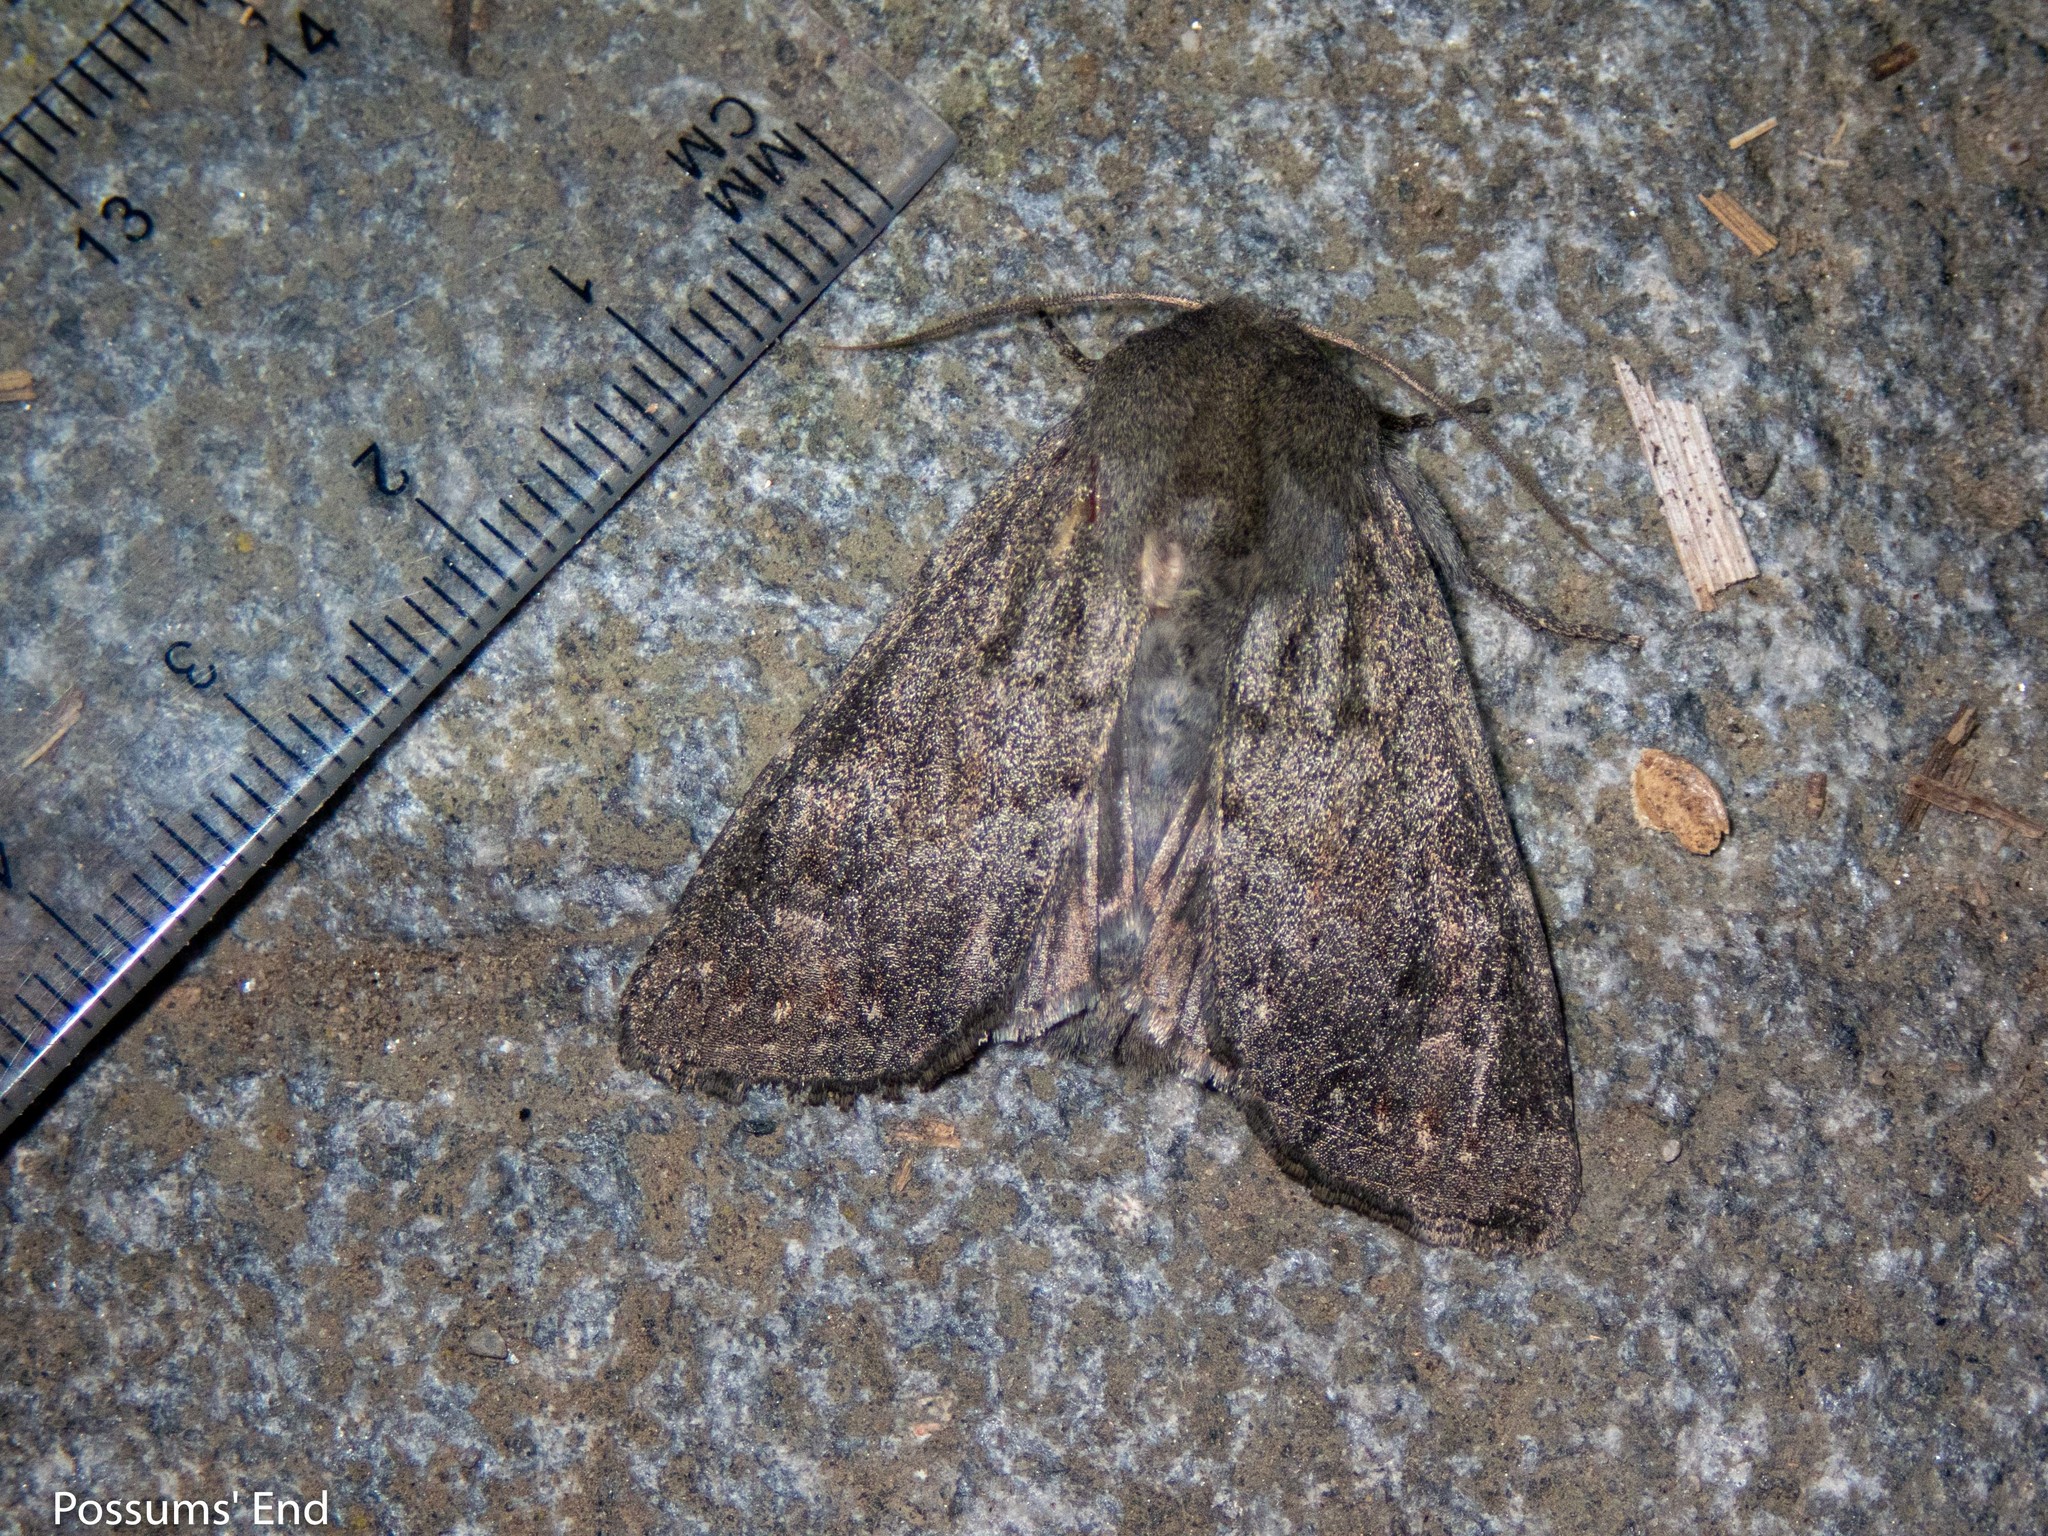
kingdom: Animalia
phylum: Arthropoda
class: Insecta
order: Lepidoptera
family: Noctuidae
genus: Ichneutica
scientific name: Ichneutica nullifera
